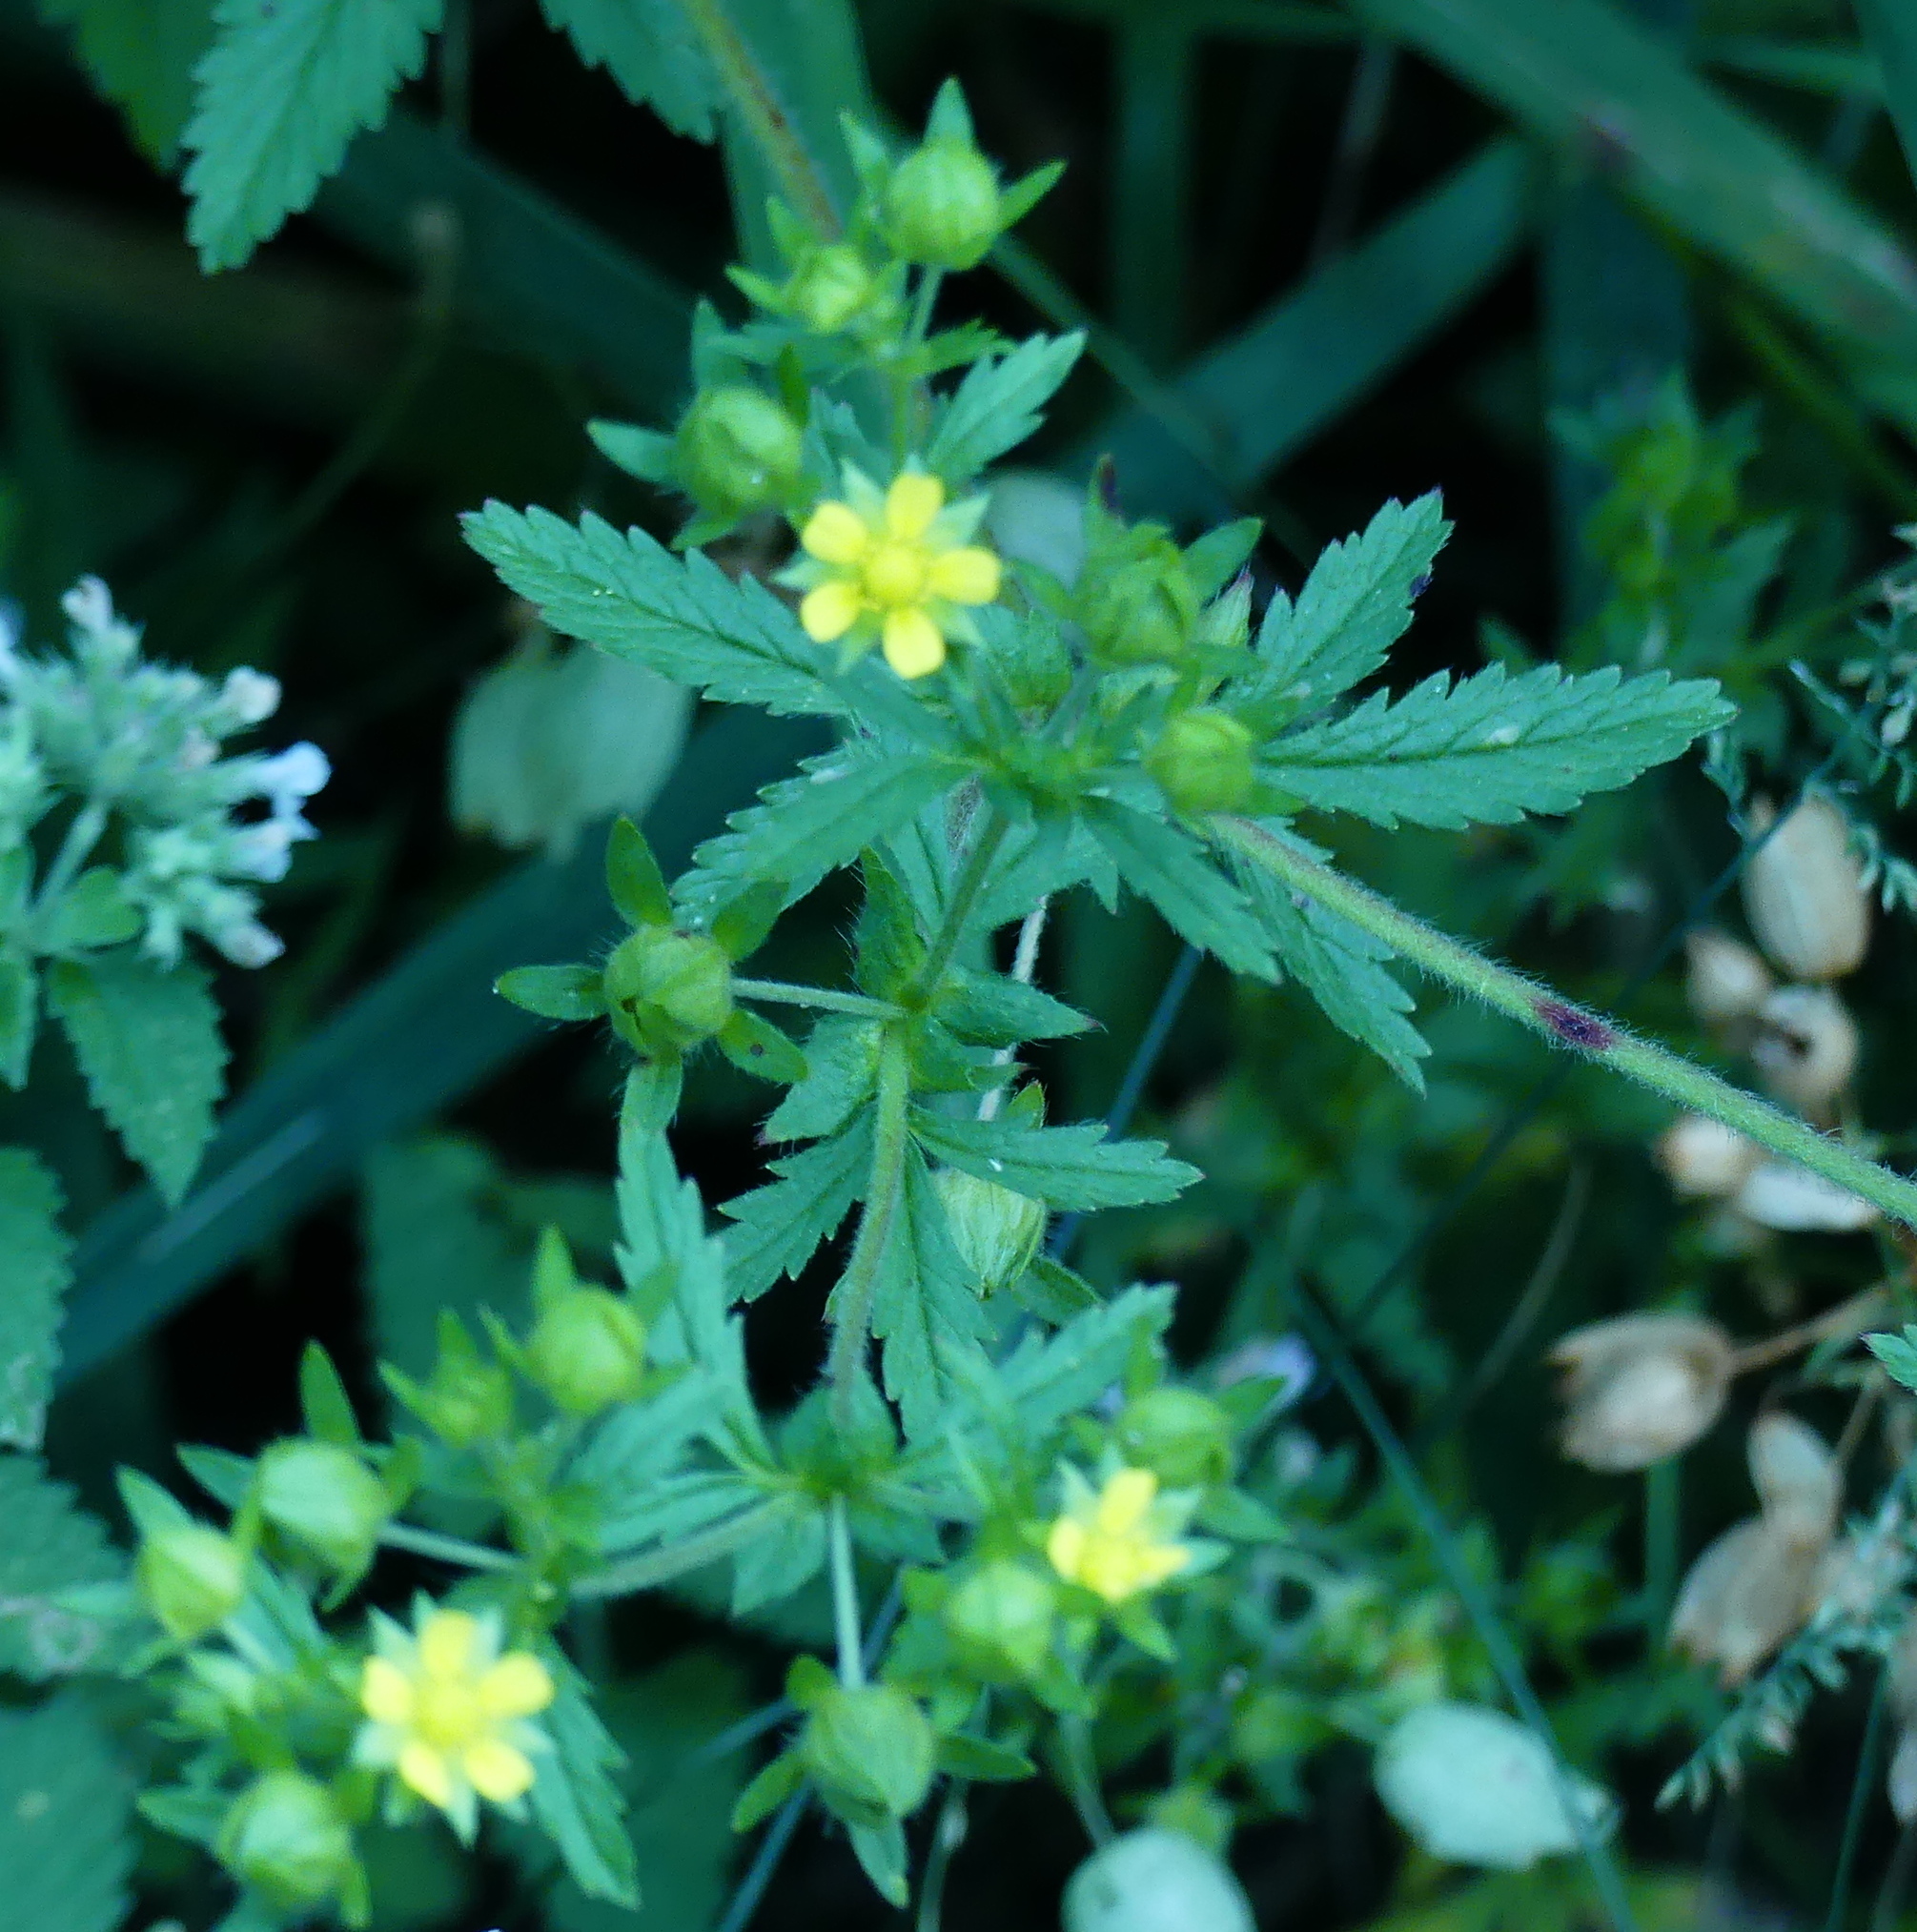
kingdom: Plantae
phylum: Tracheophyta
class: Magnoliopsida
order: Rosales
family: Rosaceae
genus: Potentilla
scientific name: Potentilla norvegica
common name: Ternate-leaved cinquefoil
